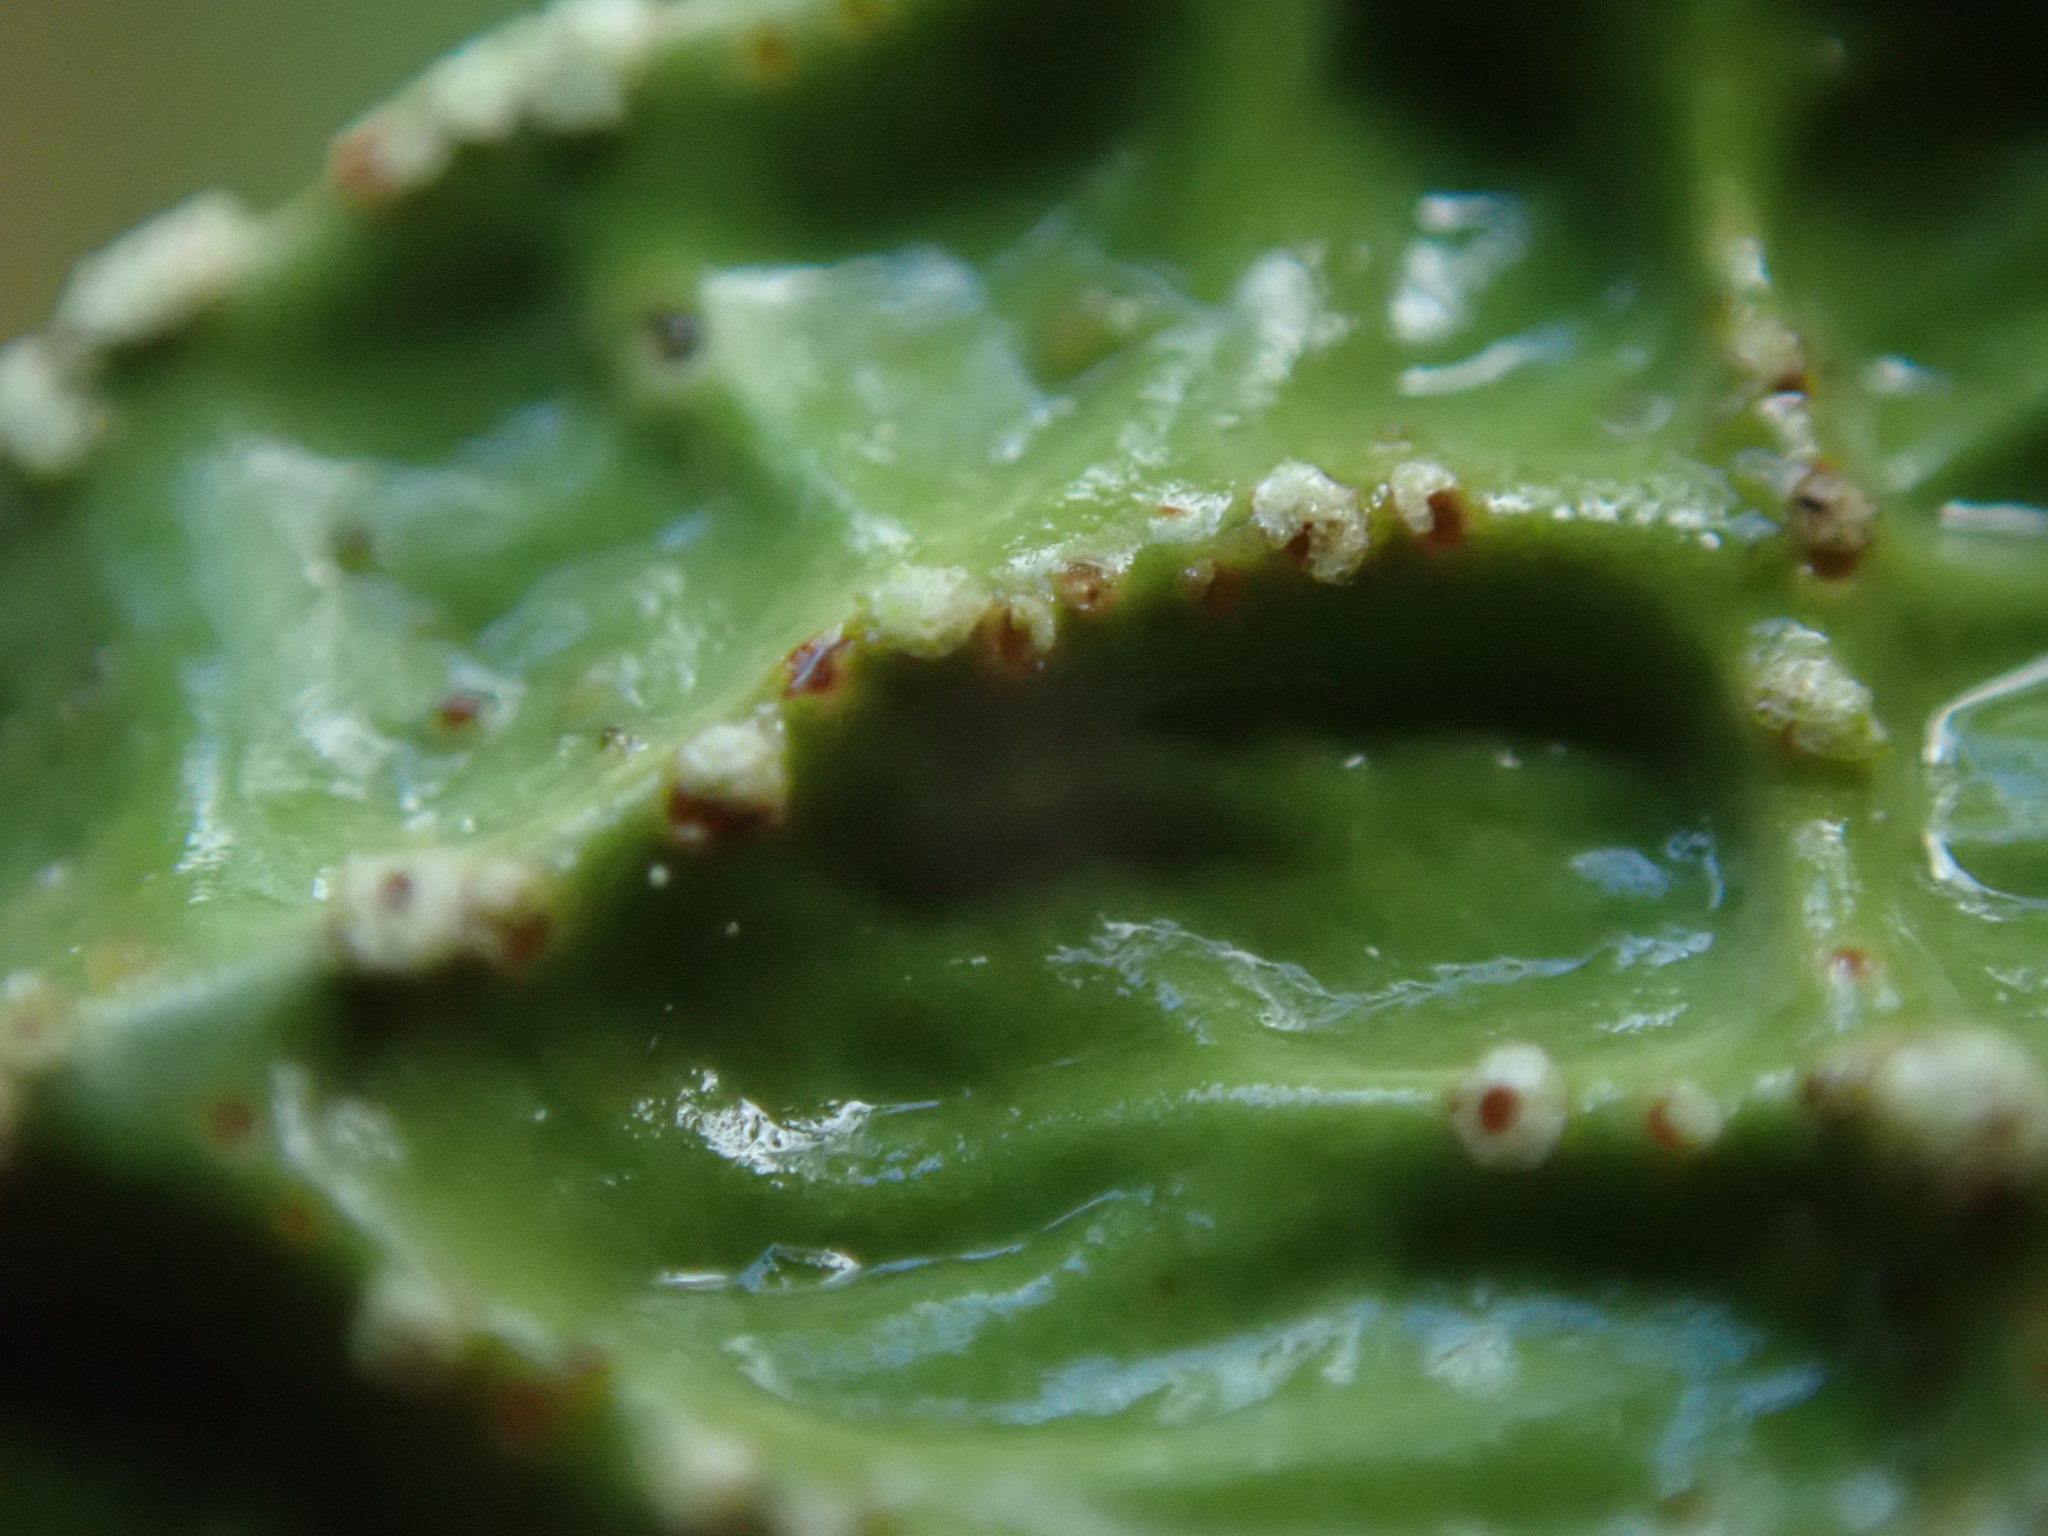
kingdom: Fungi
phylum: Ascomycota
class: Lecanoromycetes
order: Peltigerales
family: Lobariaceae
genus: Lobaria
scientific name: Lobaria pulmonaria
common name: Lungwort
